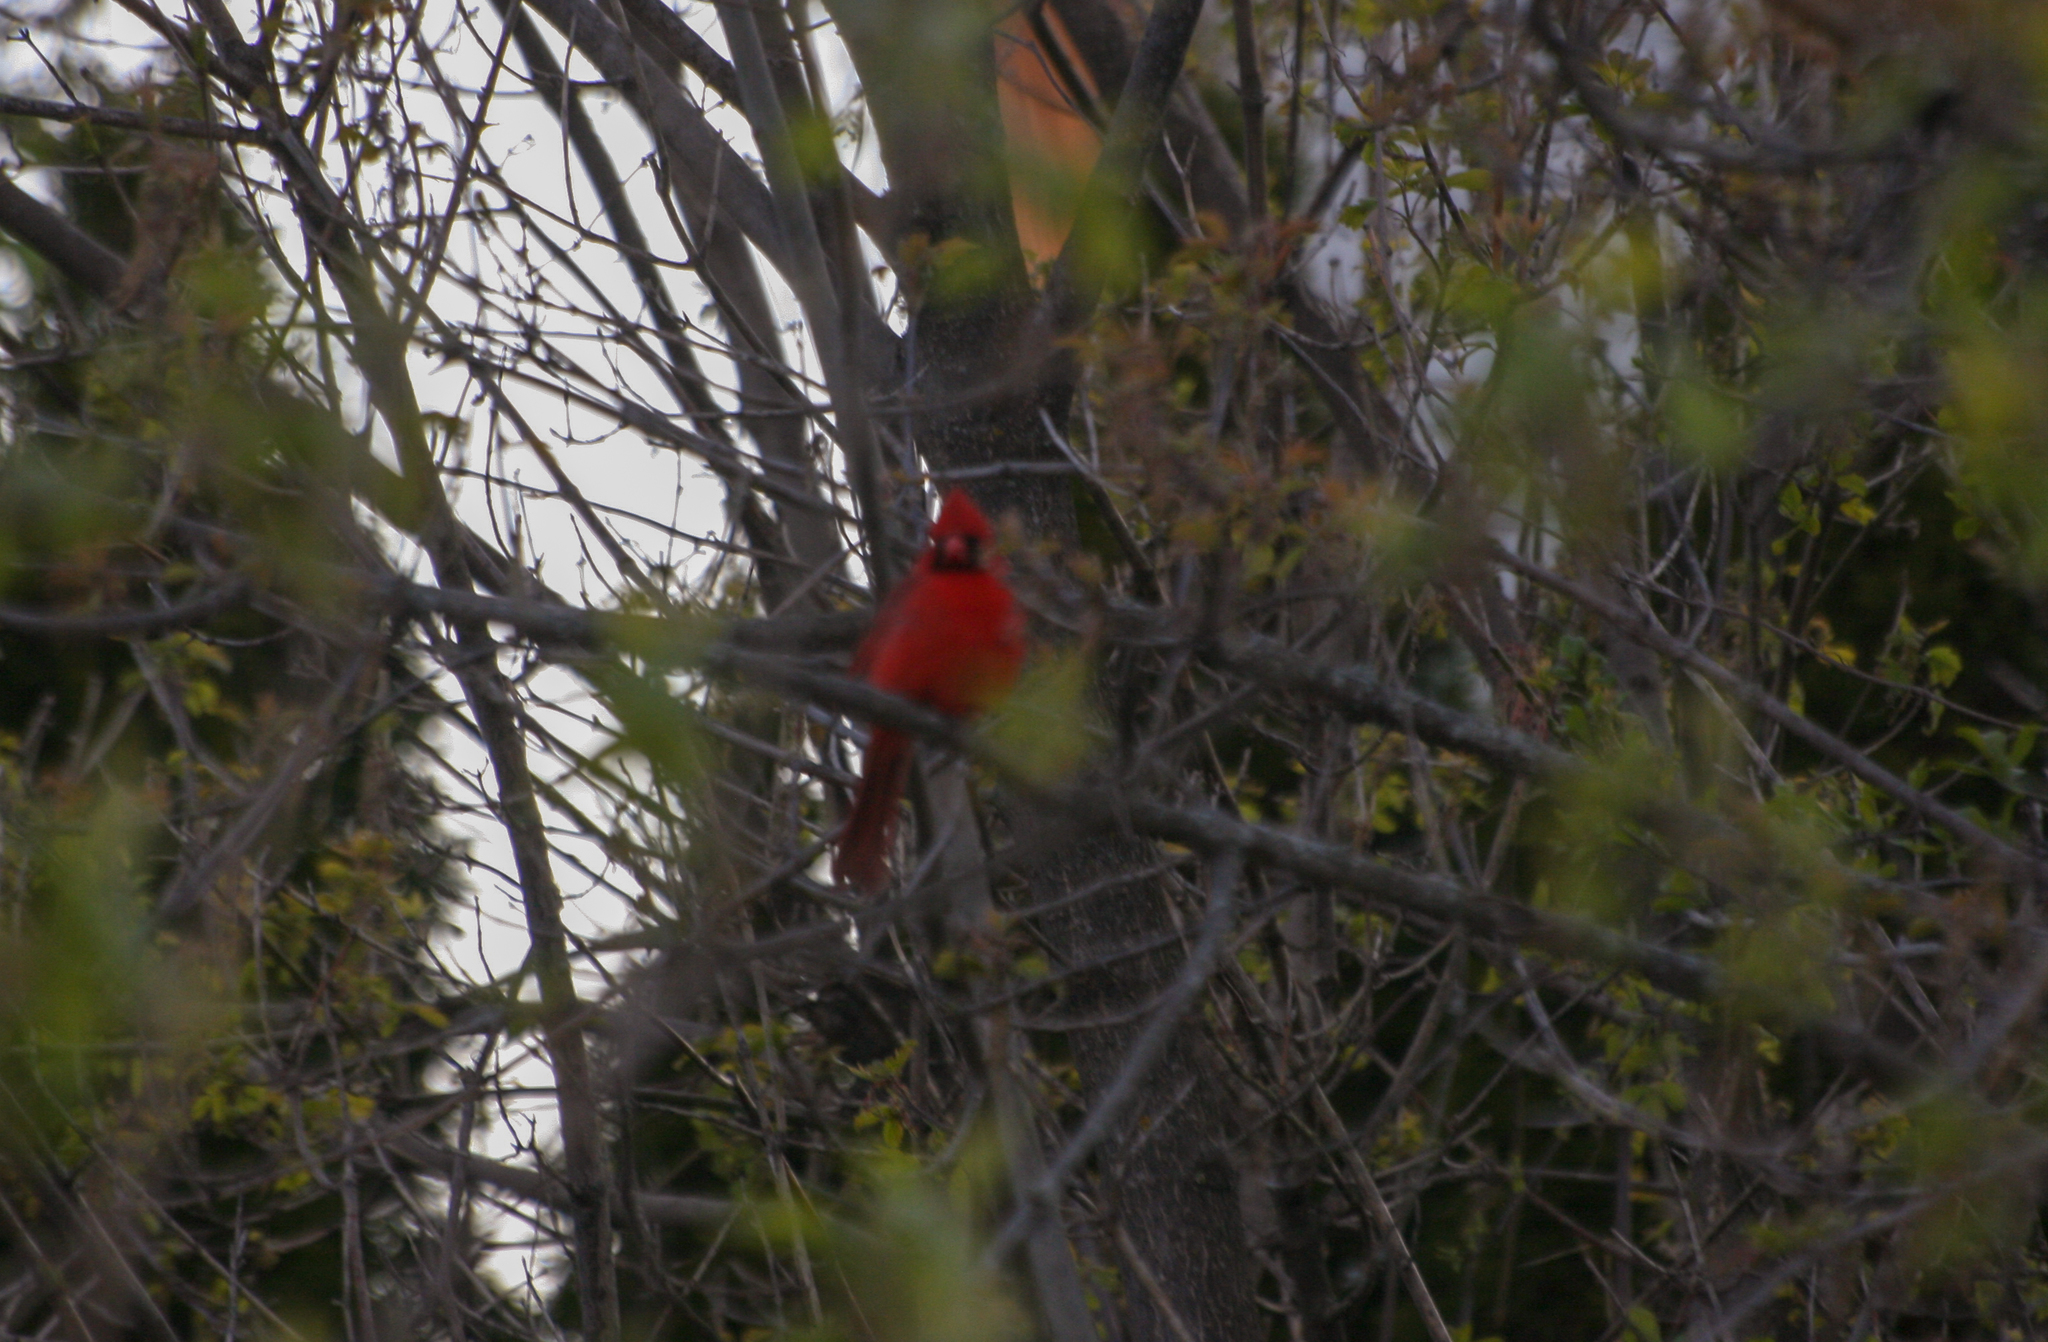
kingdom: Animalia
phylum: Chordata
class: Aves
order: Passeriformes
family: Cardinalidae
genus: Cardinalis
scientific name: Cardinalis cardinalis
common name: Northern cardinal
